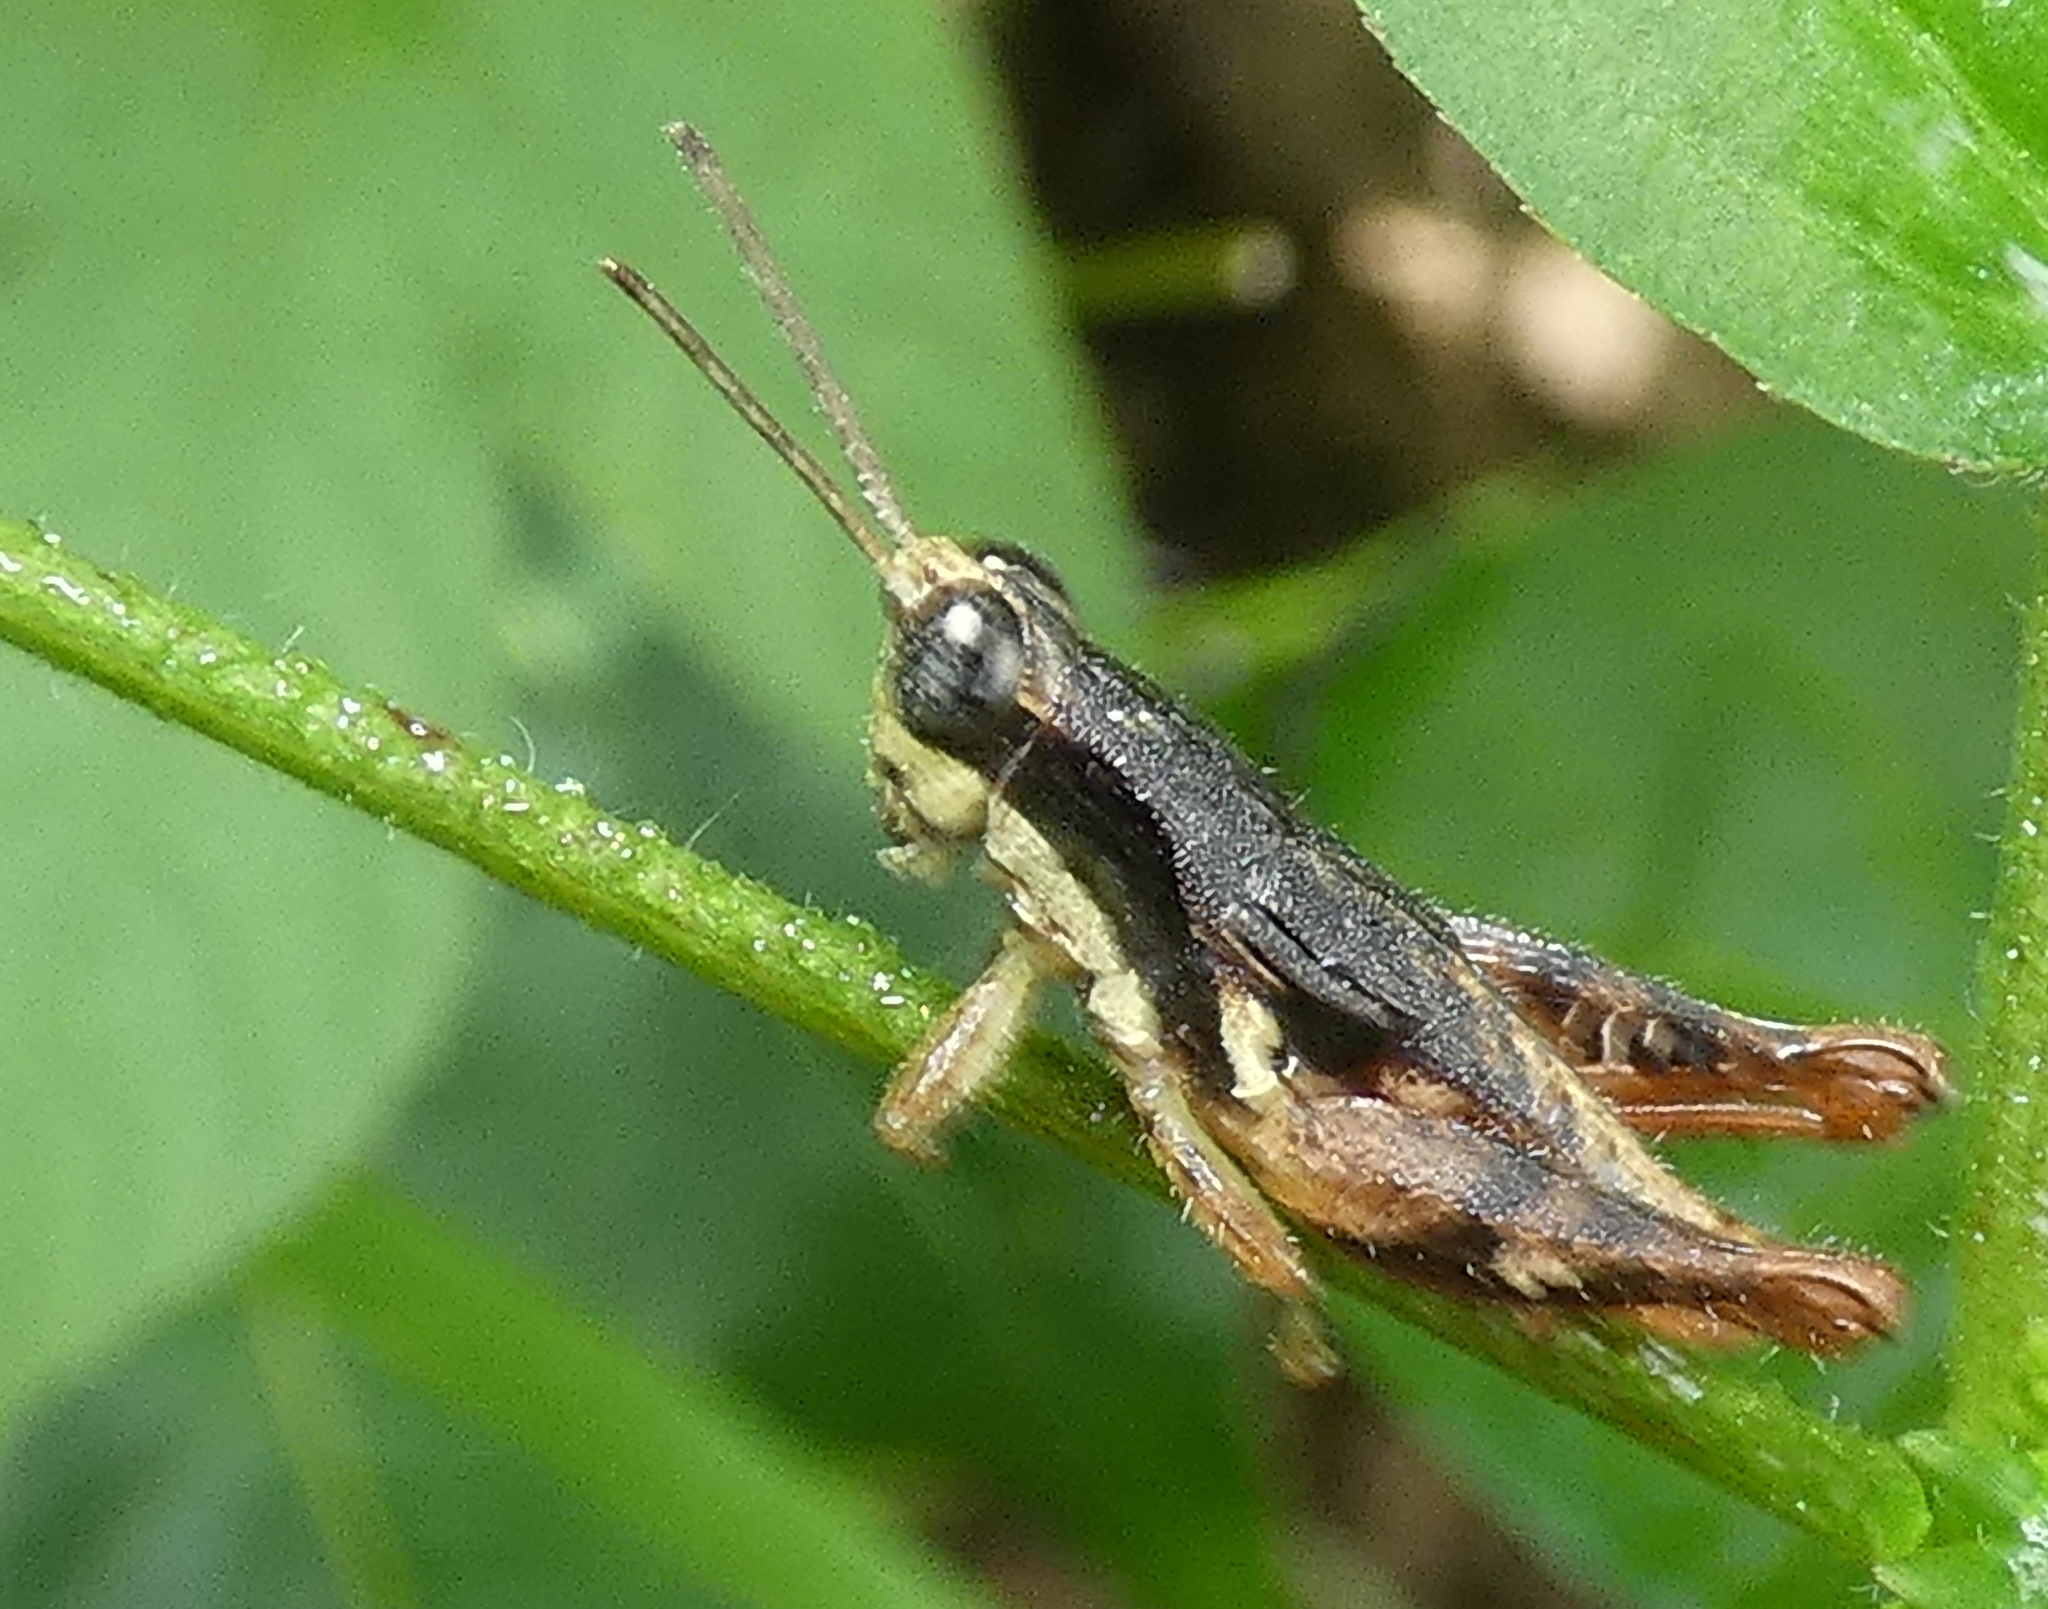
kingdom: Animalia
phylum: Arthropoda
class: Insecta
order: Orthoptera
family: Acrididae
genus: Eujivarus
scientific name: Eujivarus meridionalis
